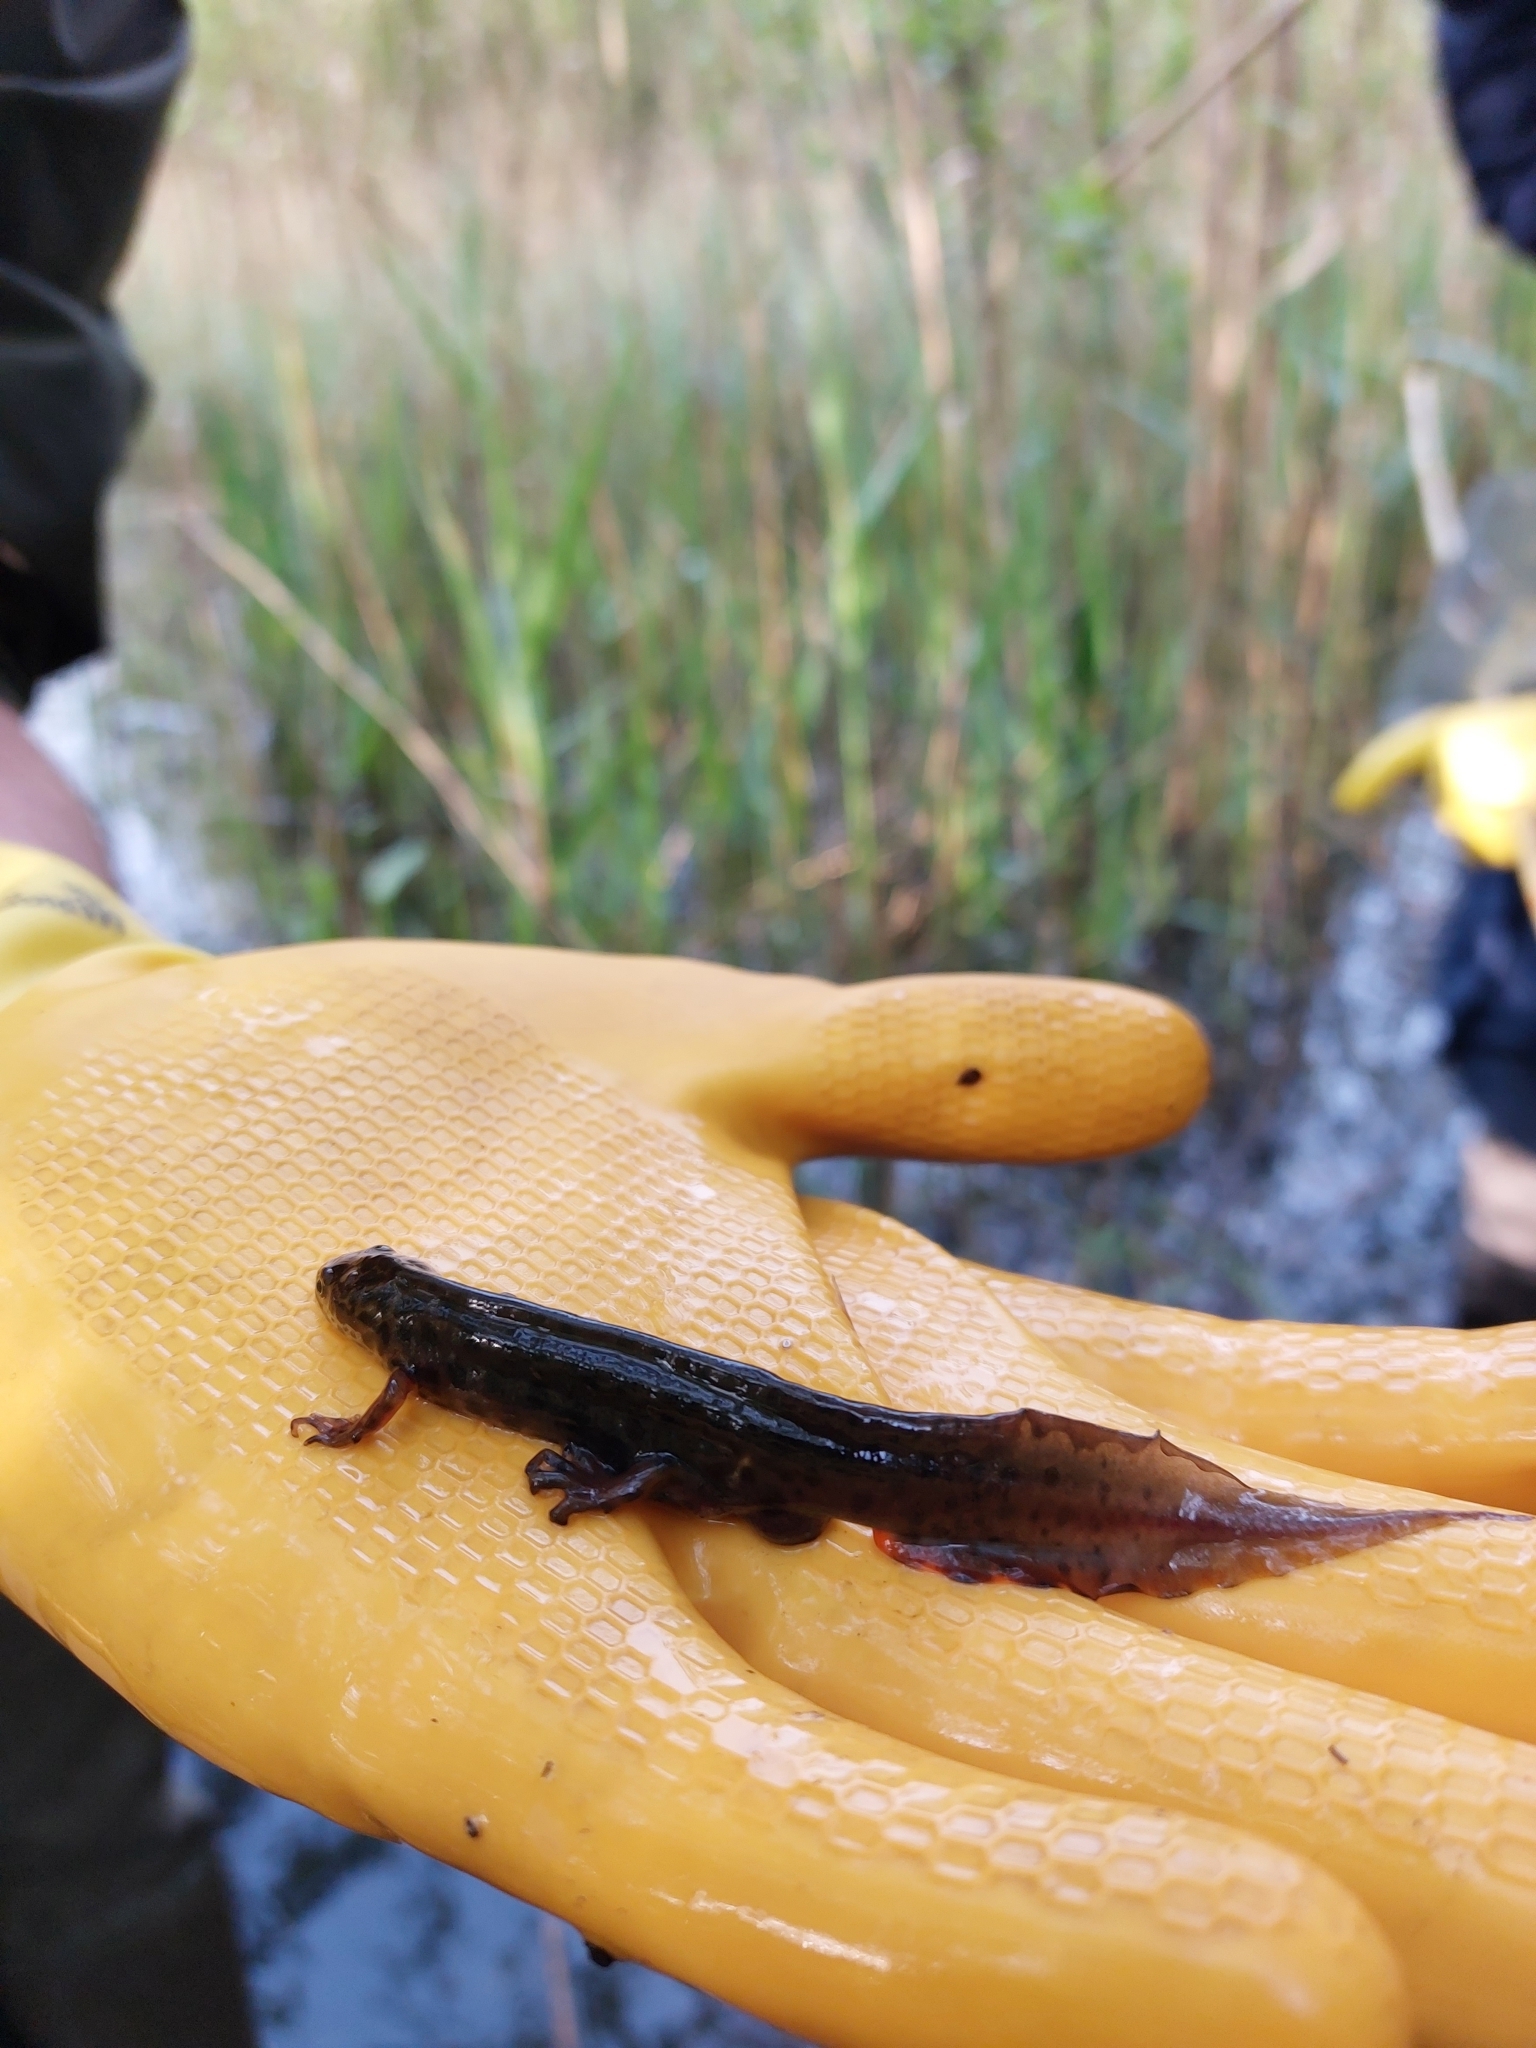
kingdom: Animalia
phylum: Chordata
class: Amphibia
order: Caudata
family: Salamandridae
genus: Lissotriton
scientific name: Lissotriton vulgaris
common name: Smooth newt
